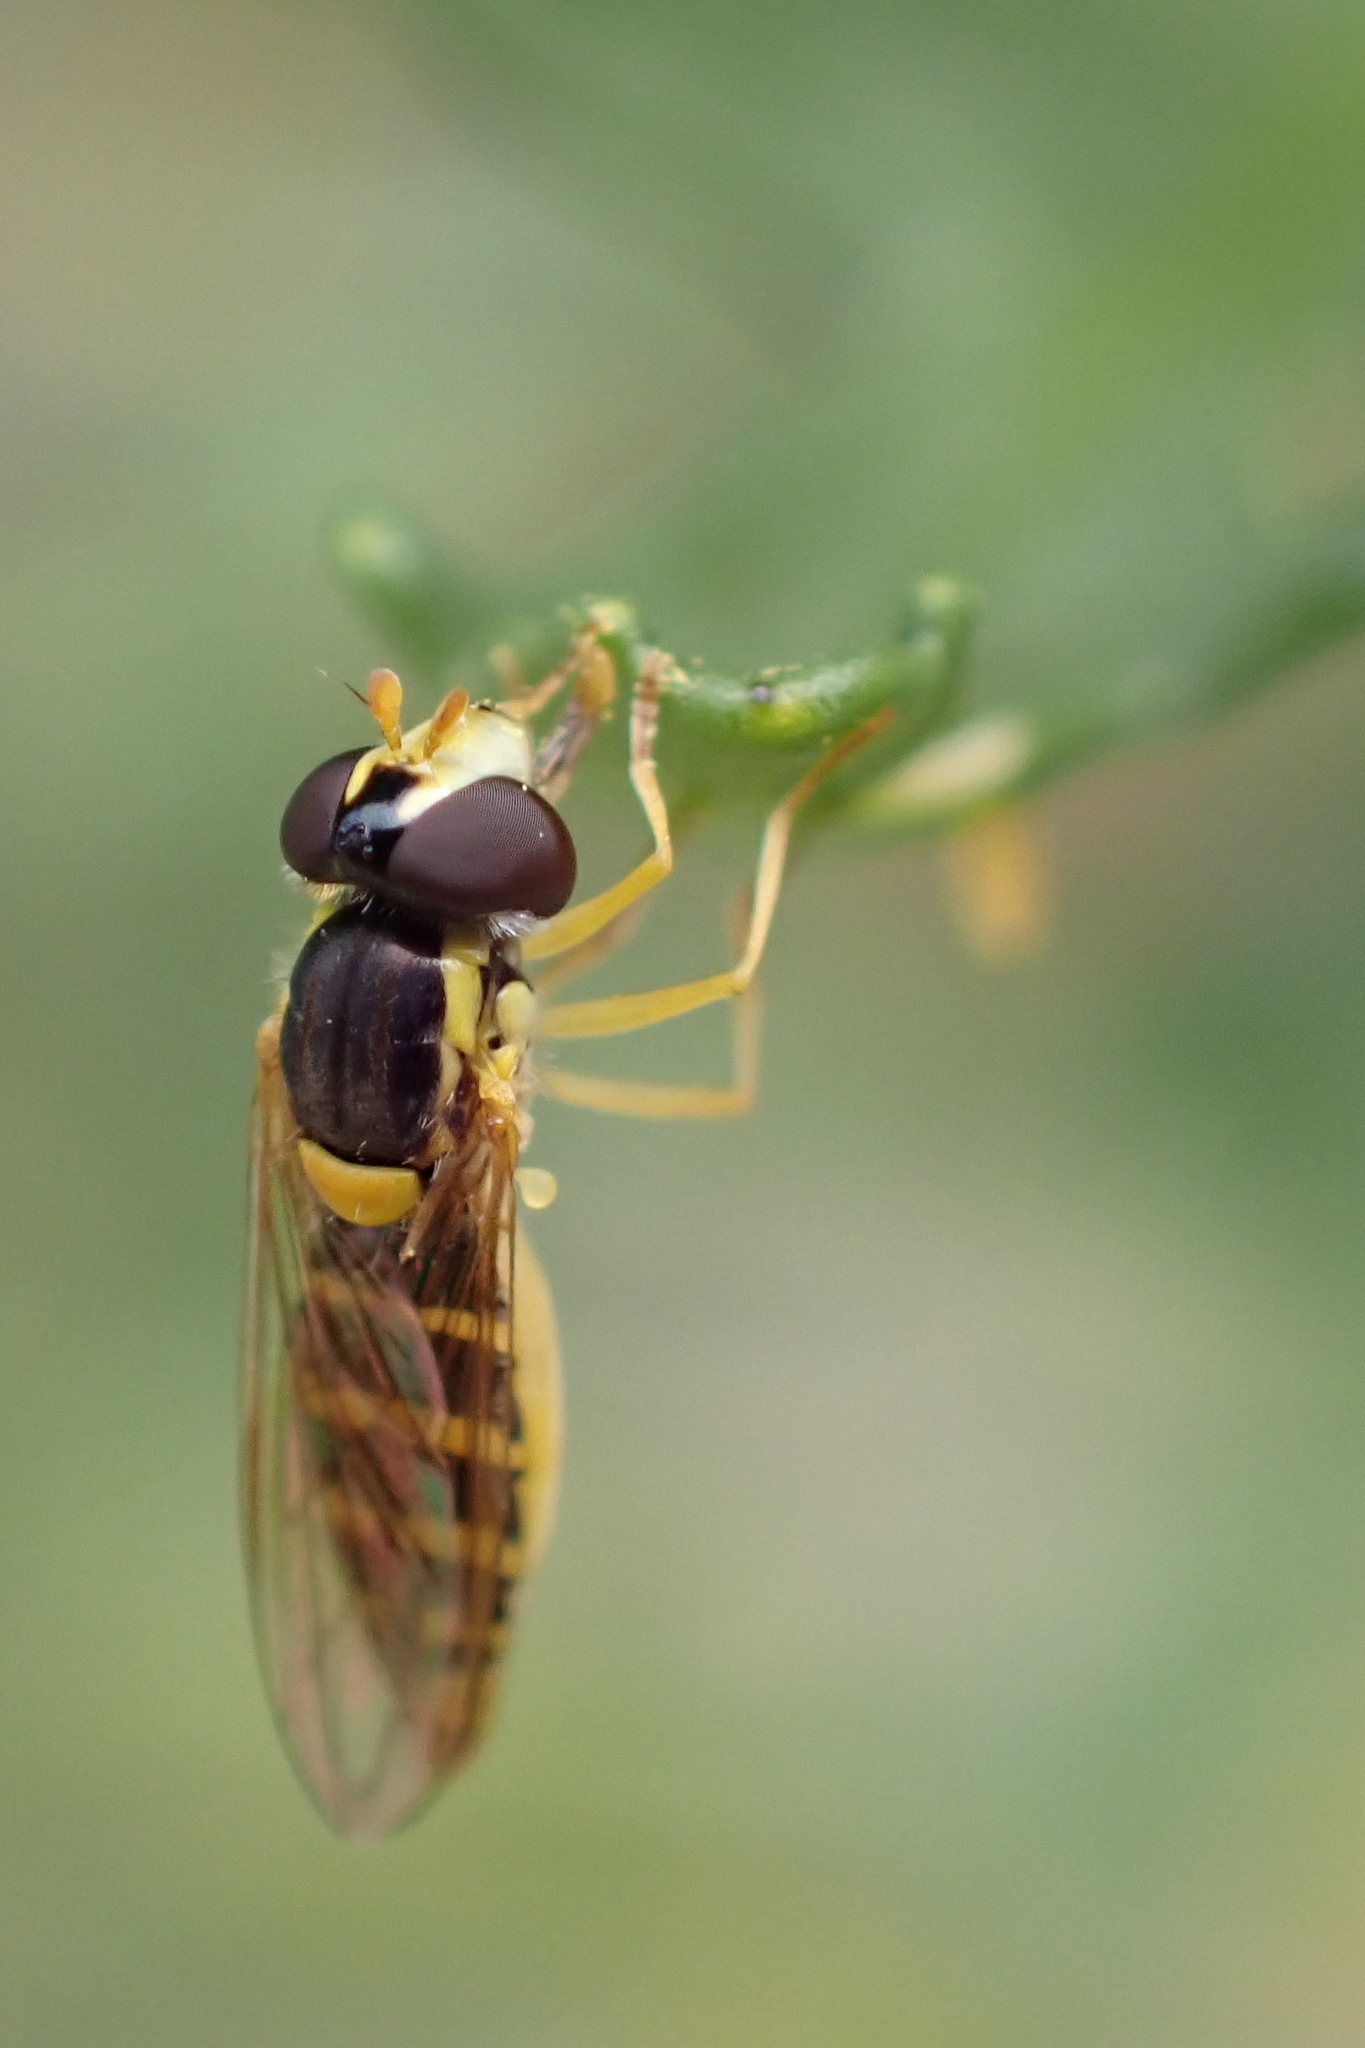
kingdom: Animalia
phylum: Arthropoda
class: Insecta
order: Diptera
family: Syrphidae
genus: Sphaerophoria
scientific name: Sphaerophoria
